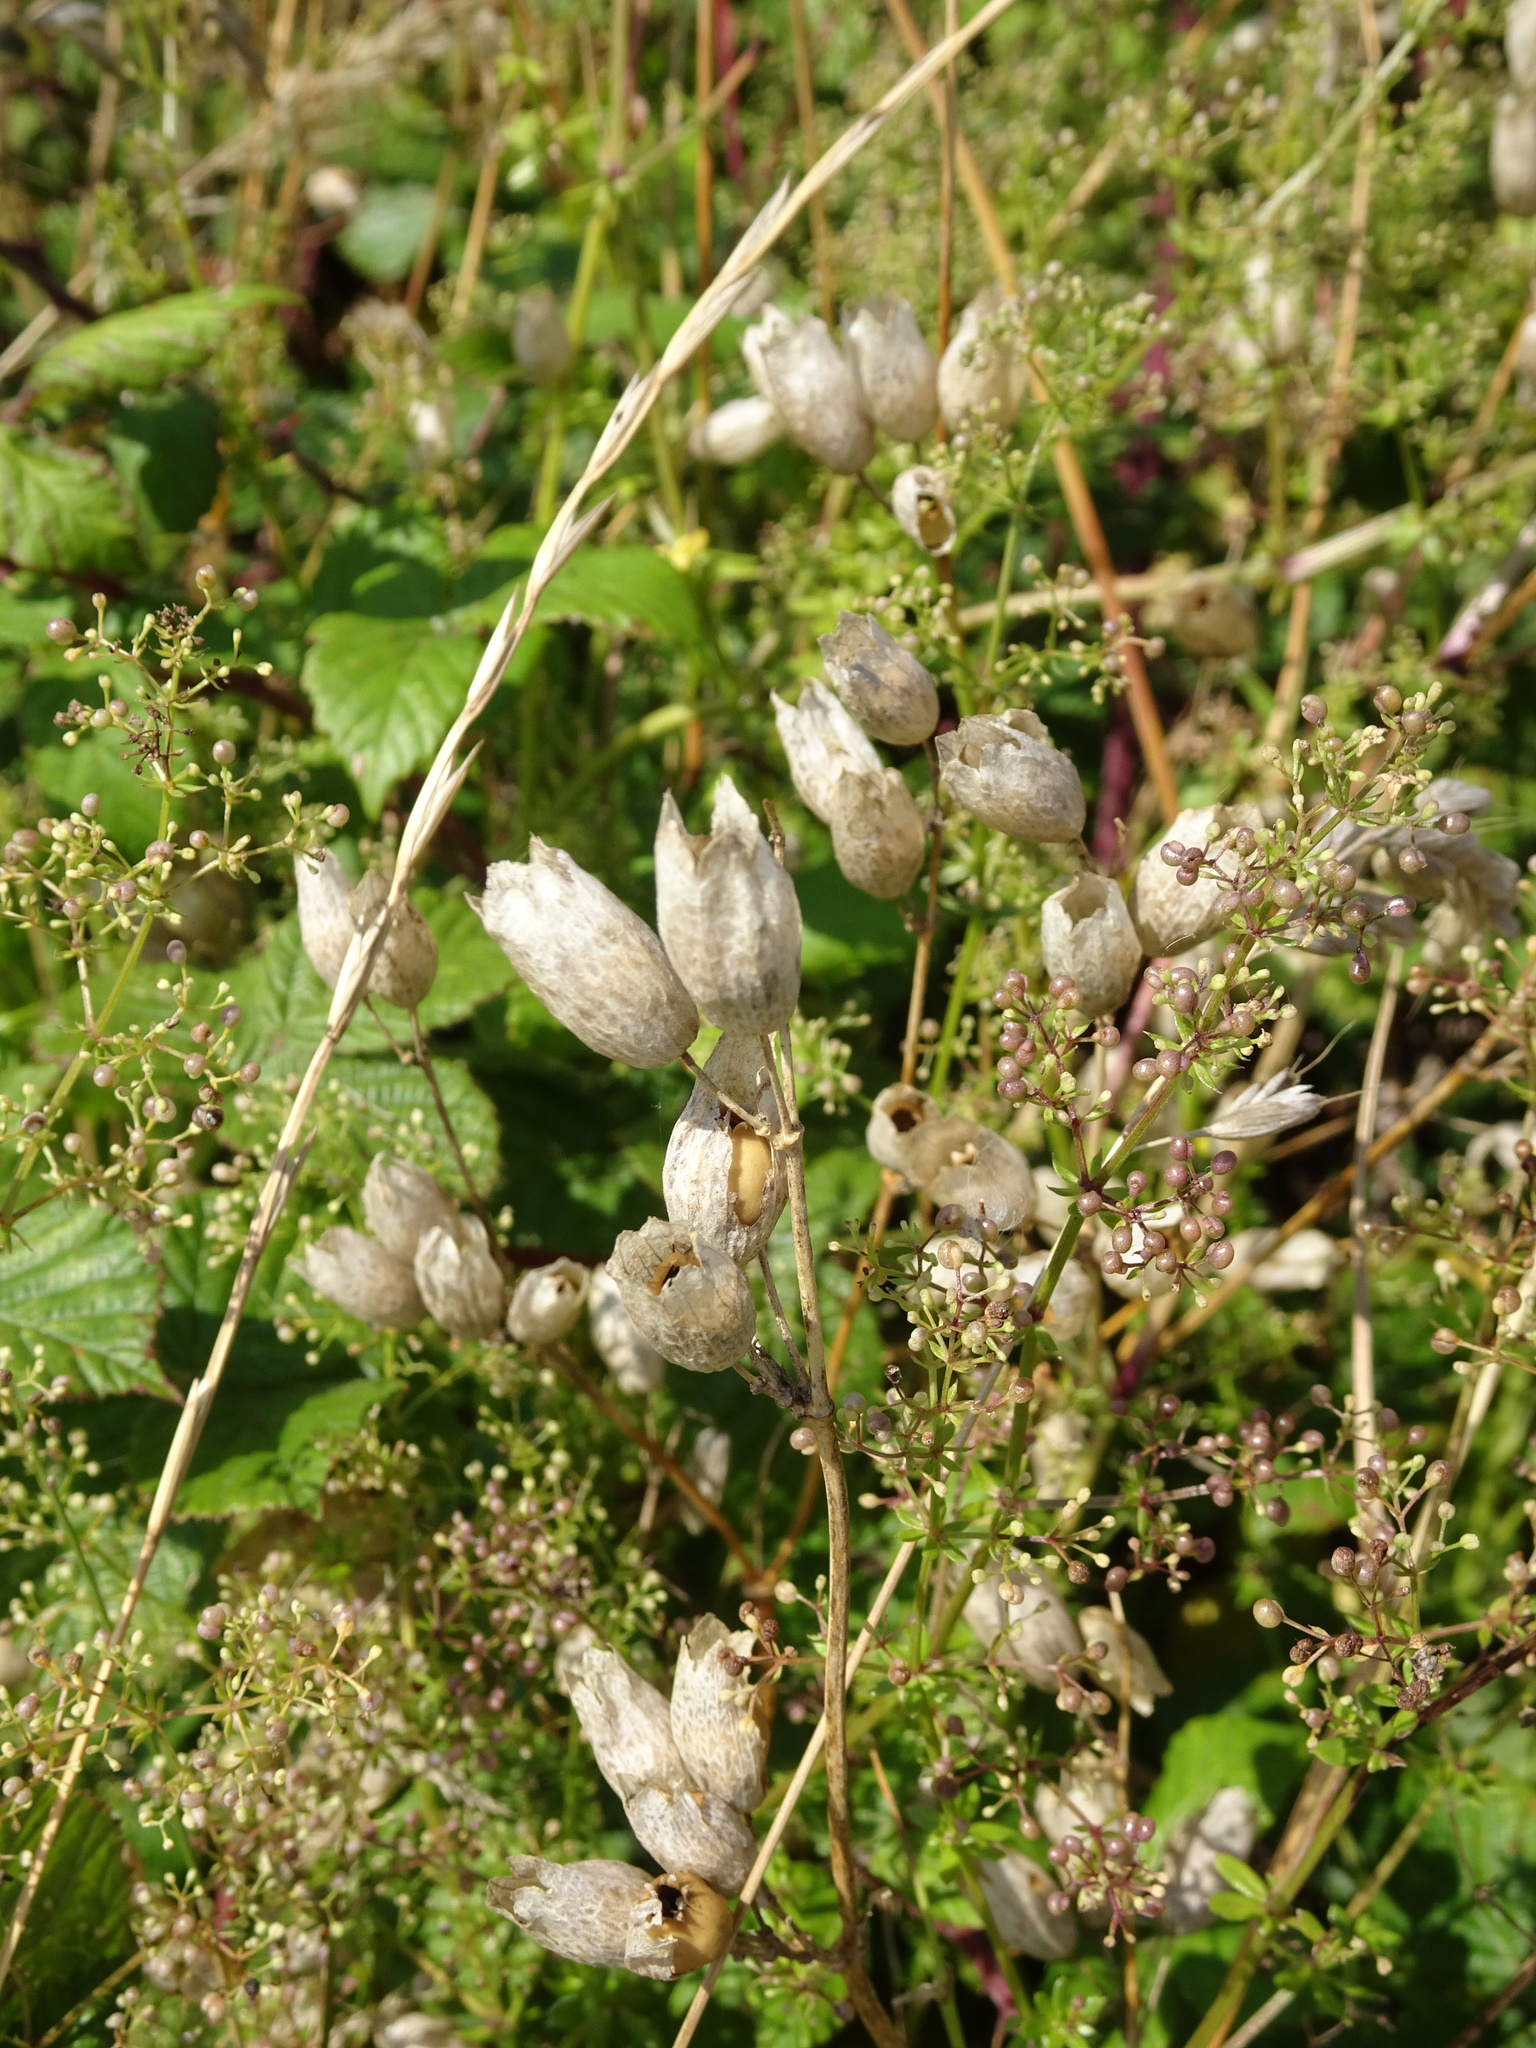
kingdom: Plantae
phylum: Tracheophyta
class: Magnoliopsida
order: Caryophyllales
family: Caryophyllaceae
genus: Silene
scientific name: Silene vulgaris
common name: Bladder campion
